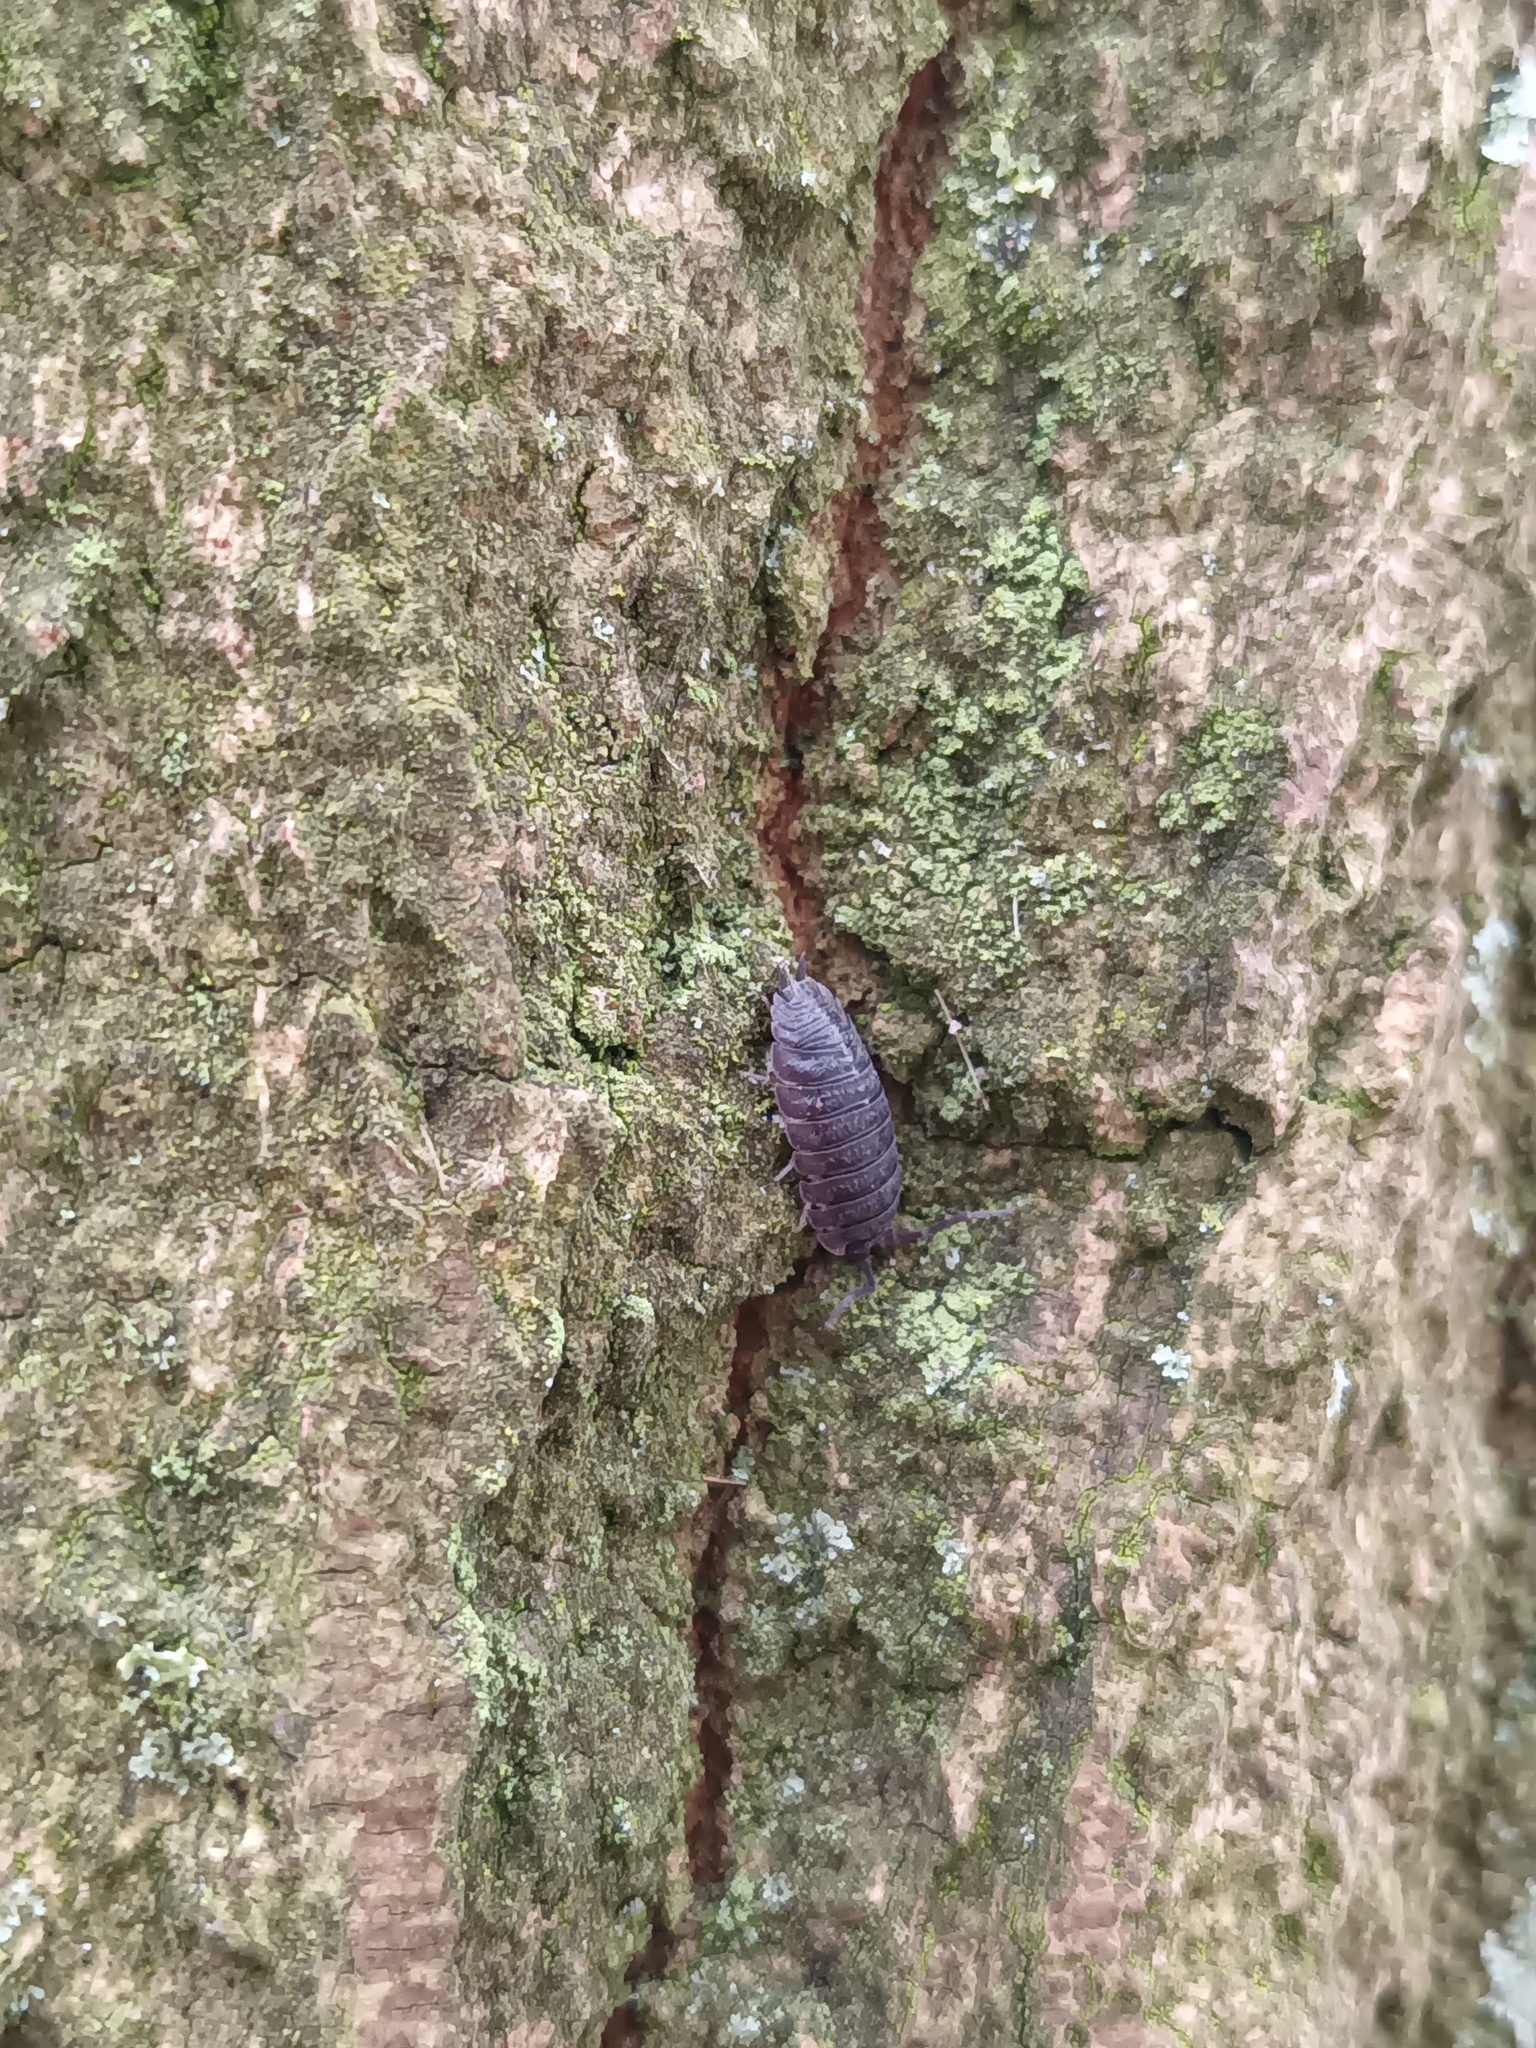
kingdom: Animalia
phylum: Arthropoda
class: Malacostraca
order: Isopoda
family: Porcellionidae
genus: Porcellio
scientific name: Porcellio scaber
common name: Common rough woodlouse
